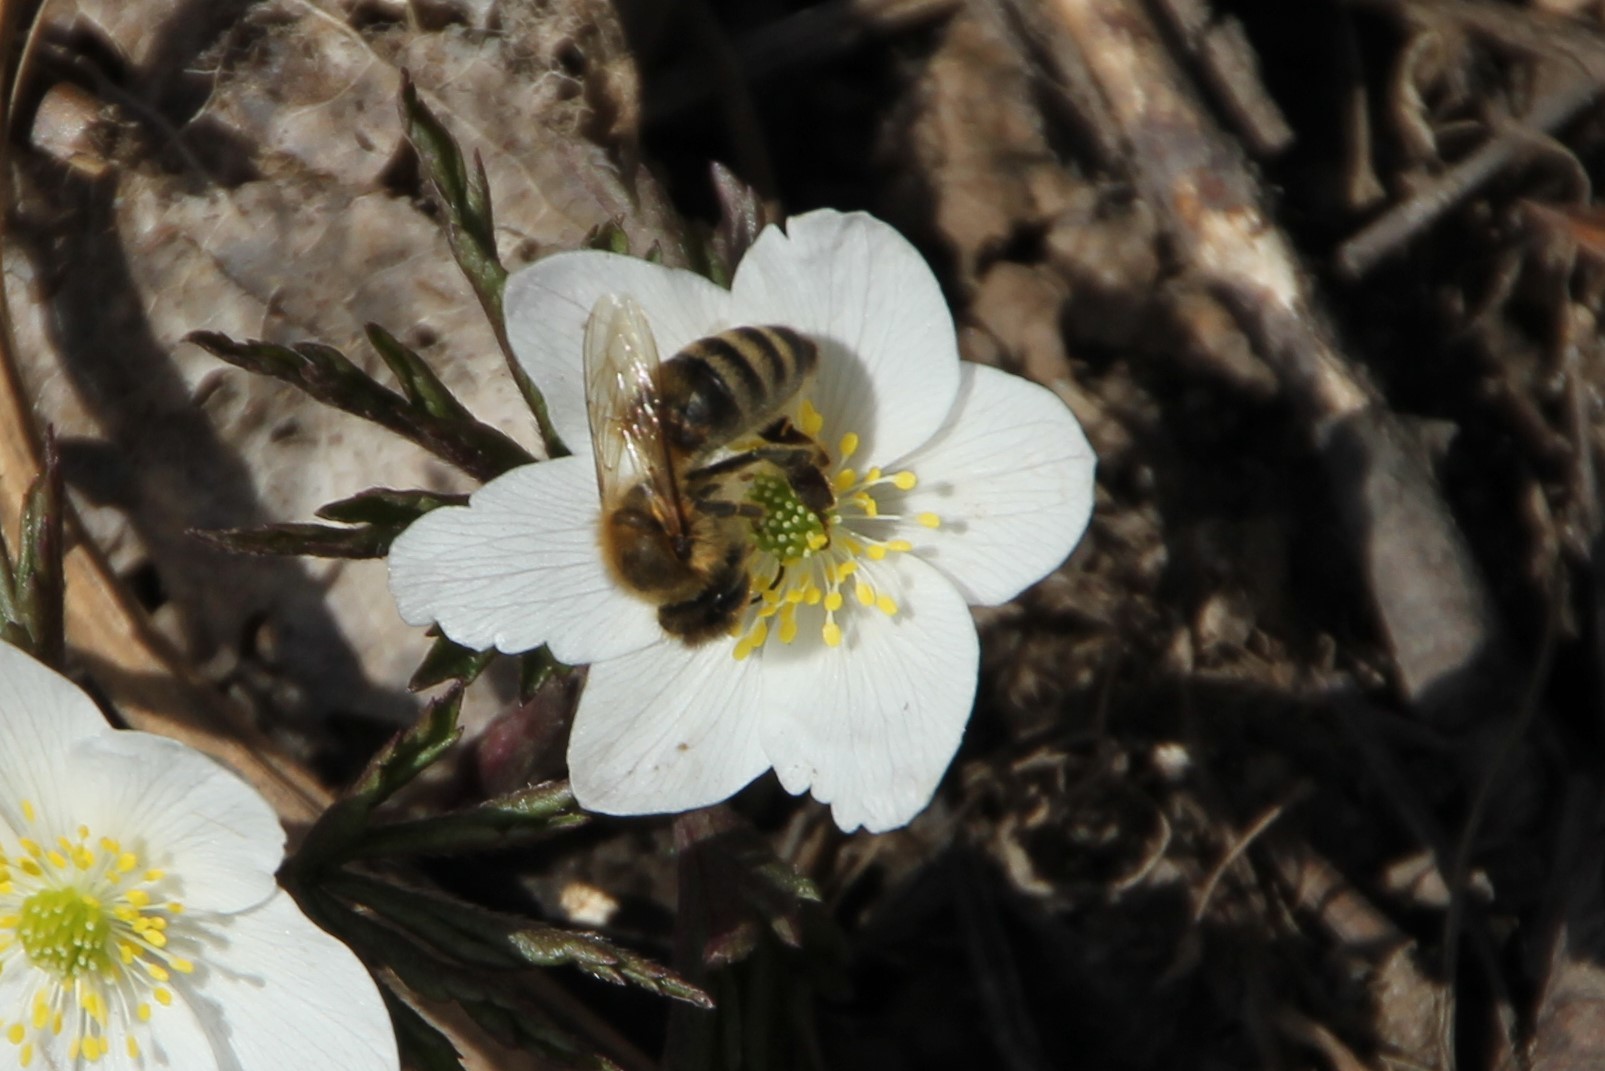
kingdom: Animalia
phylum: Arthropoda
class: Insecta
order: Hymenoptera
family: Apidae
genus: Apis
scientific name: Apis mellifera
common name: Honey bee
